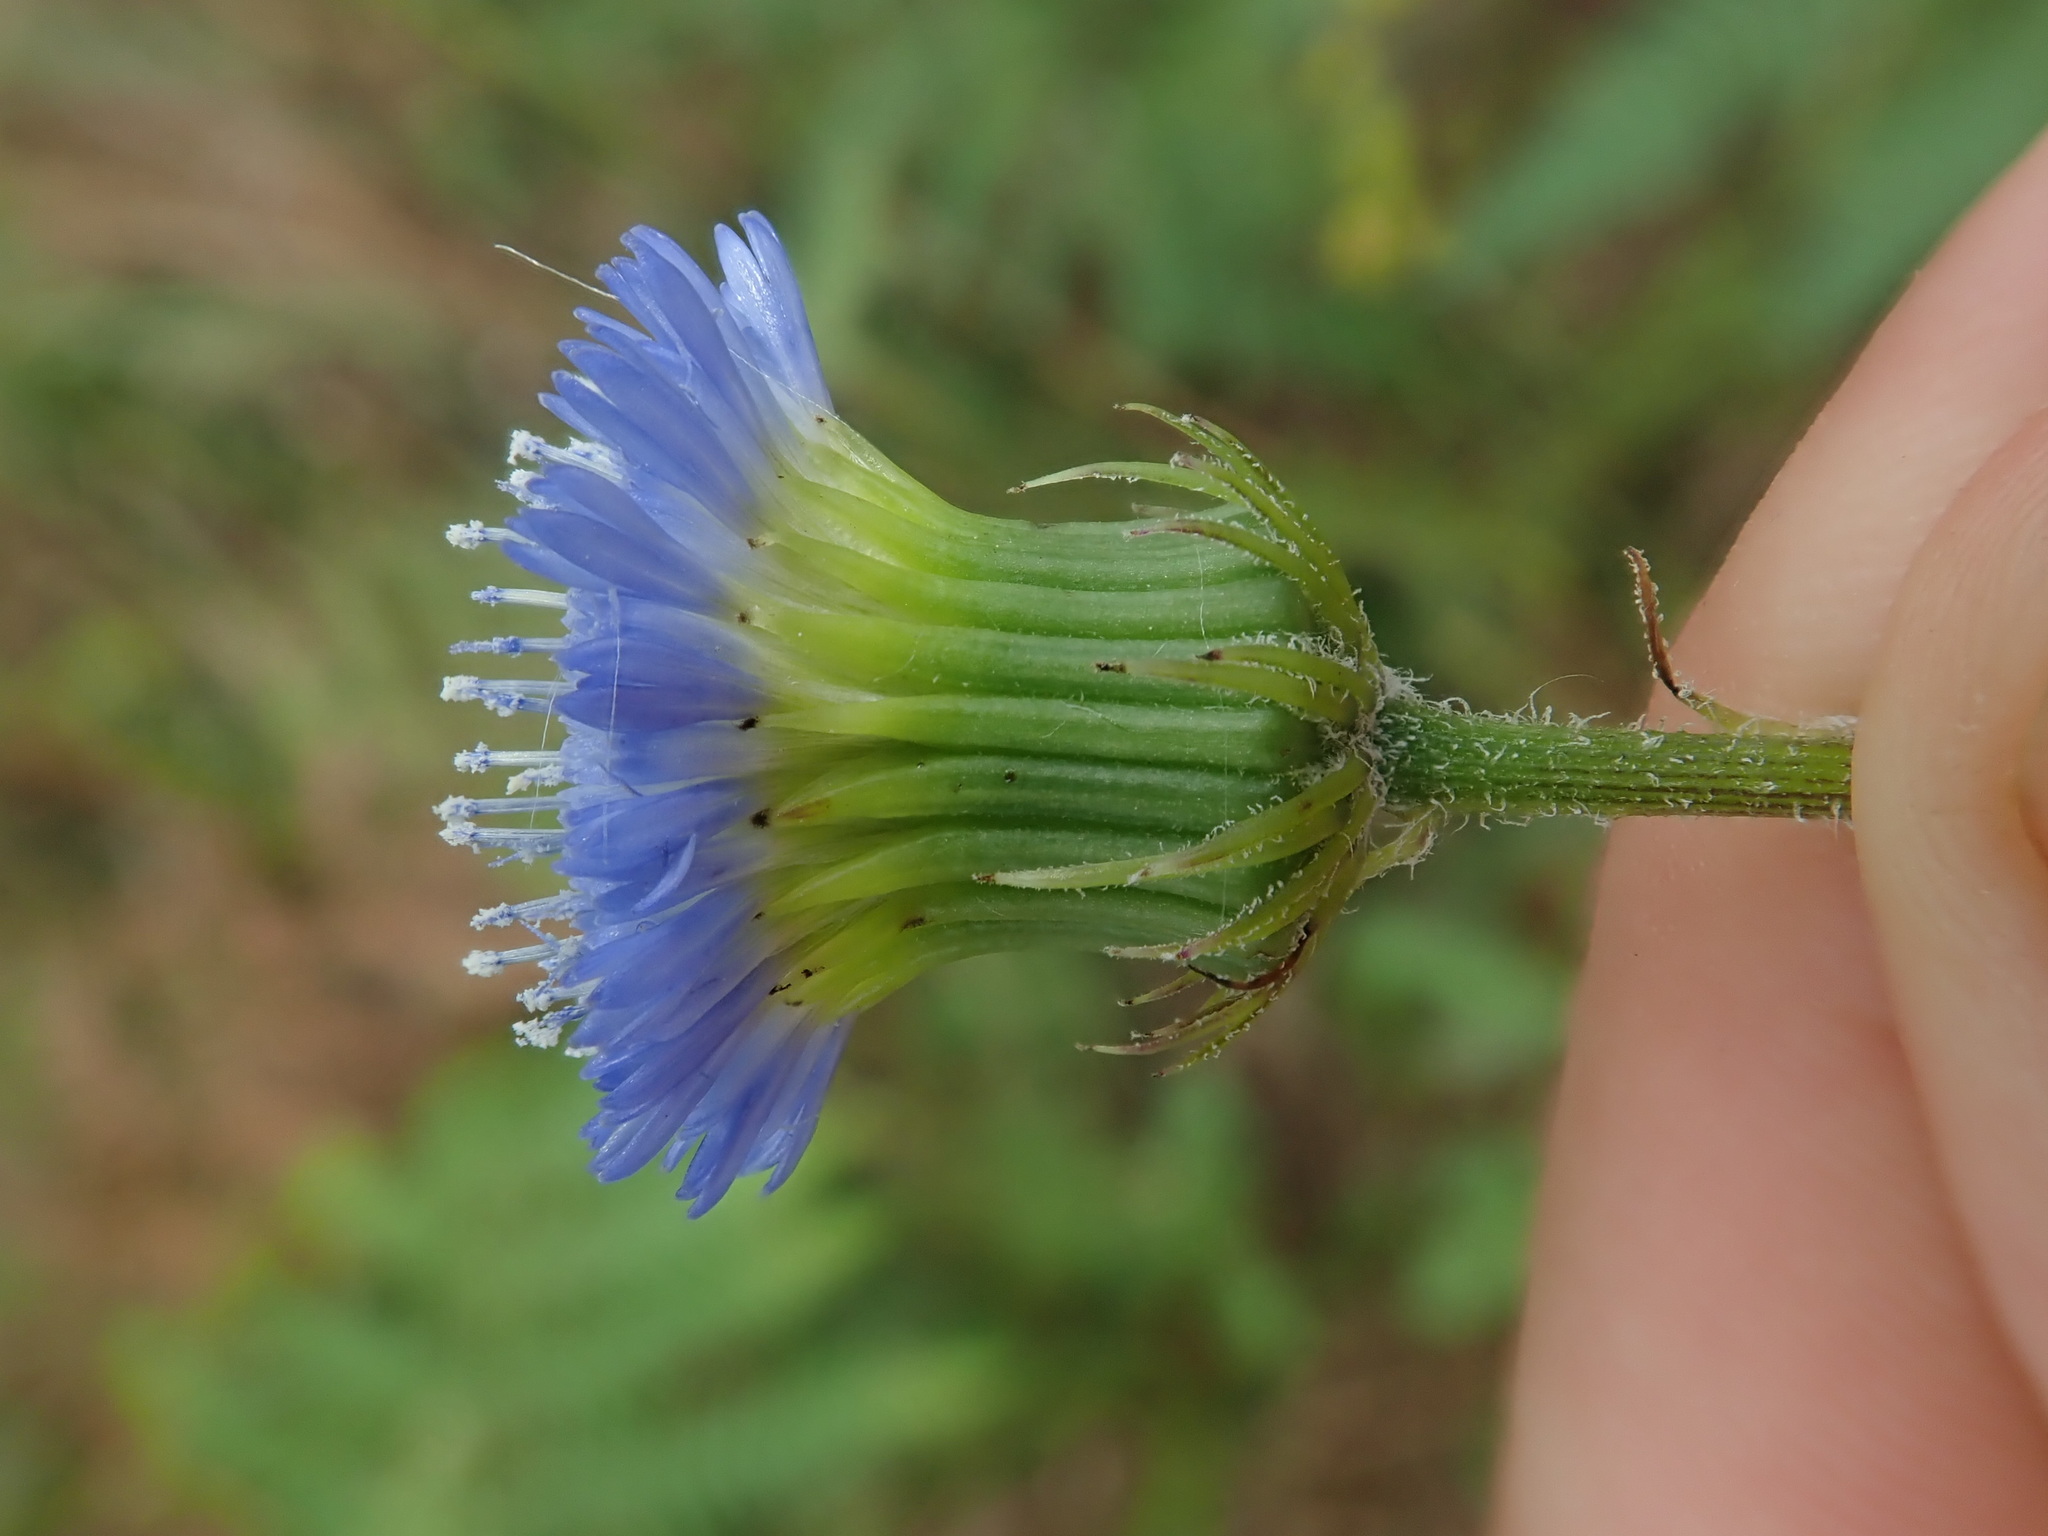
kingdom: Plantae
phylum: Tracheophyta
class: Magnoliopsida
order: Asterales
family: Asteraceae
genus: Crassocephalum
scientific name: Crassocephalum rubens
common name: Yoruban bologi
